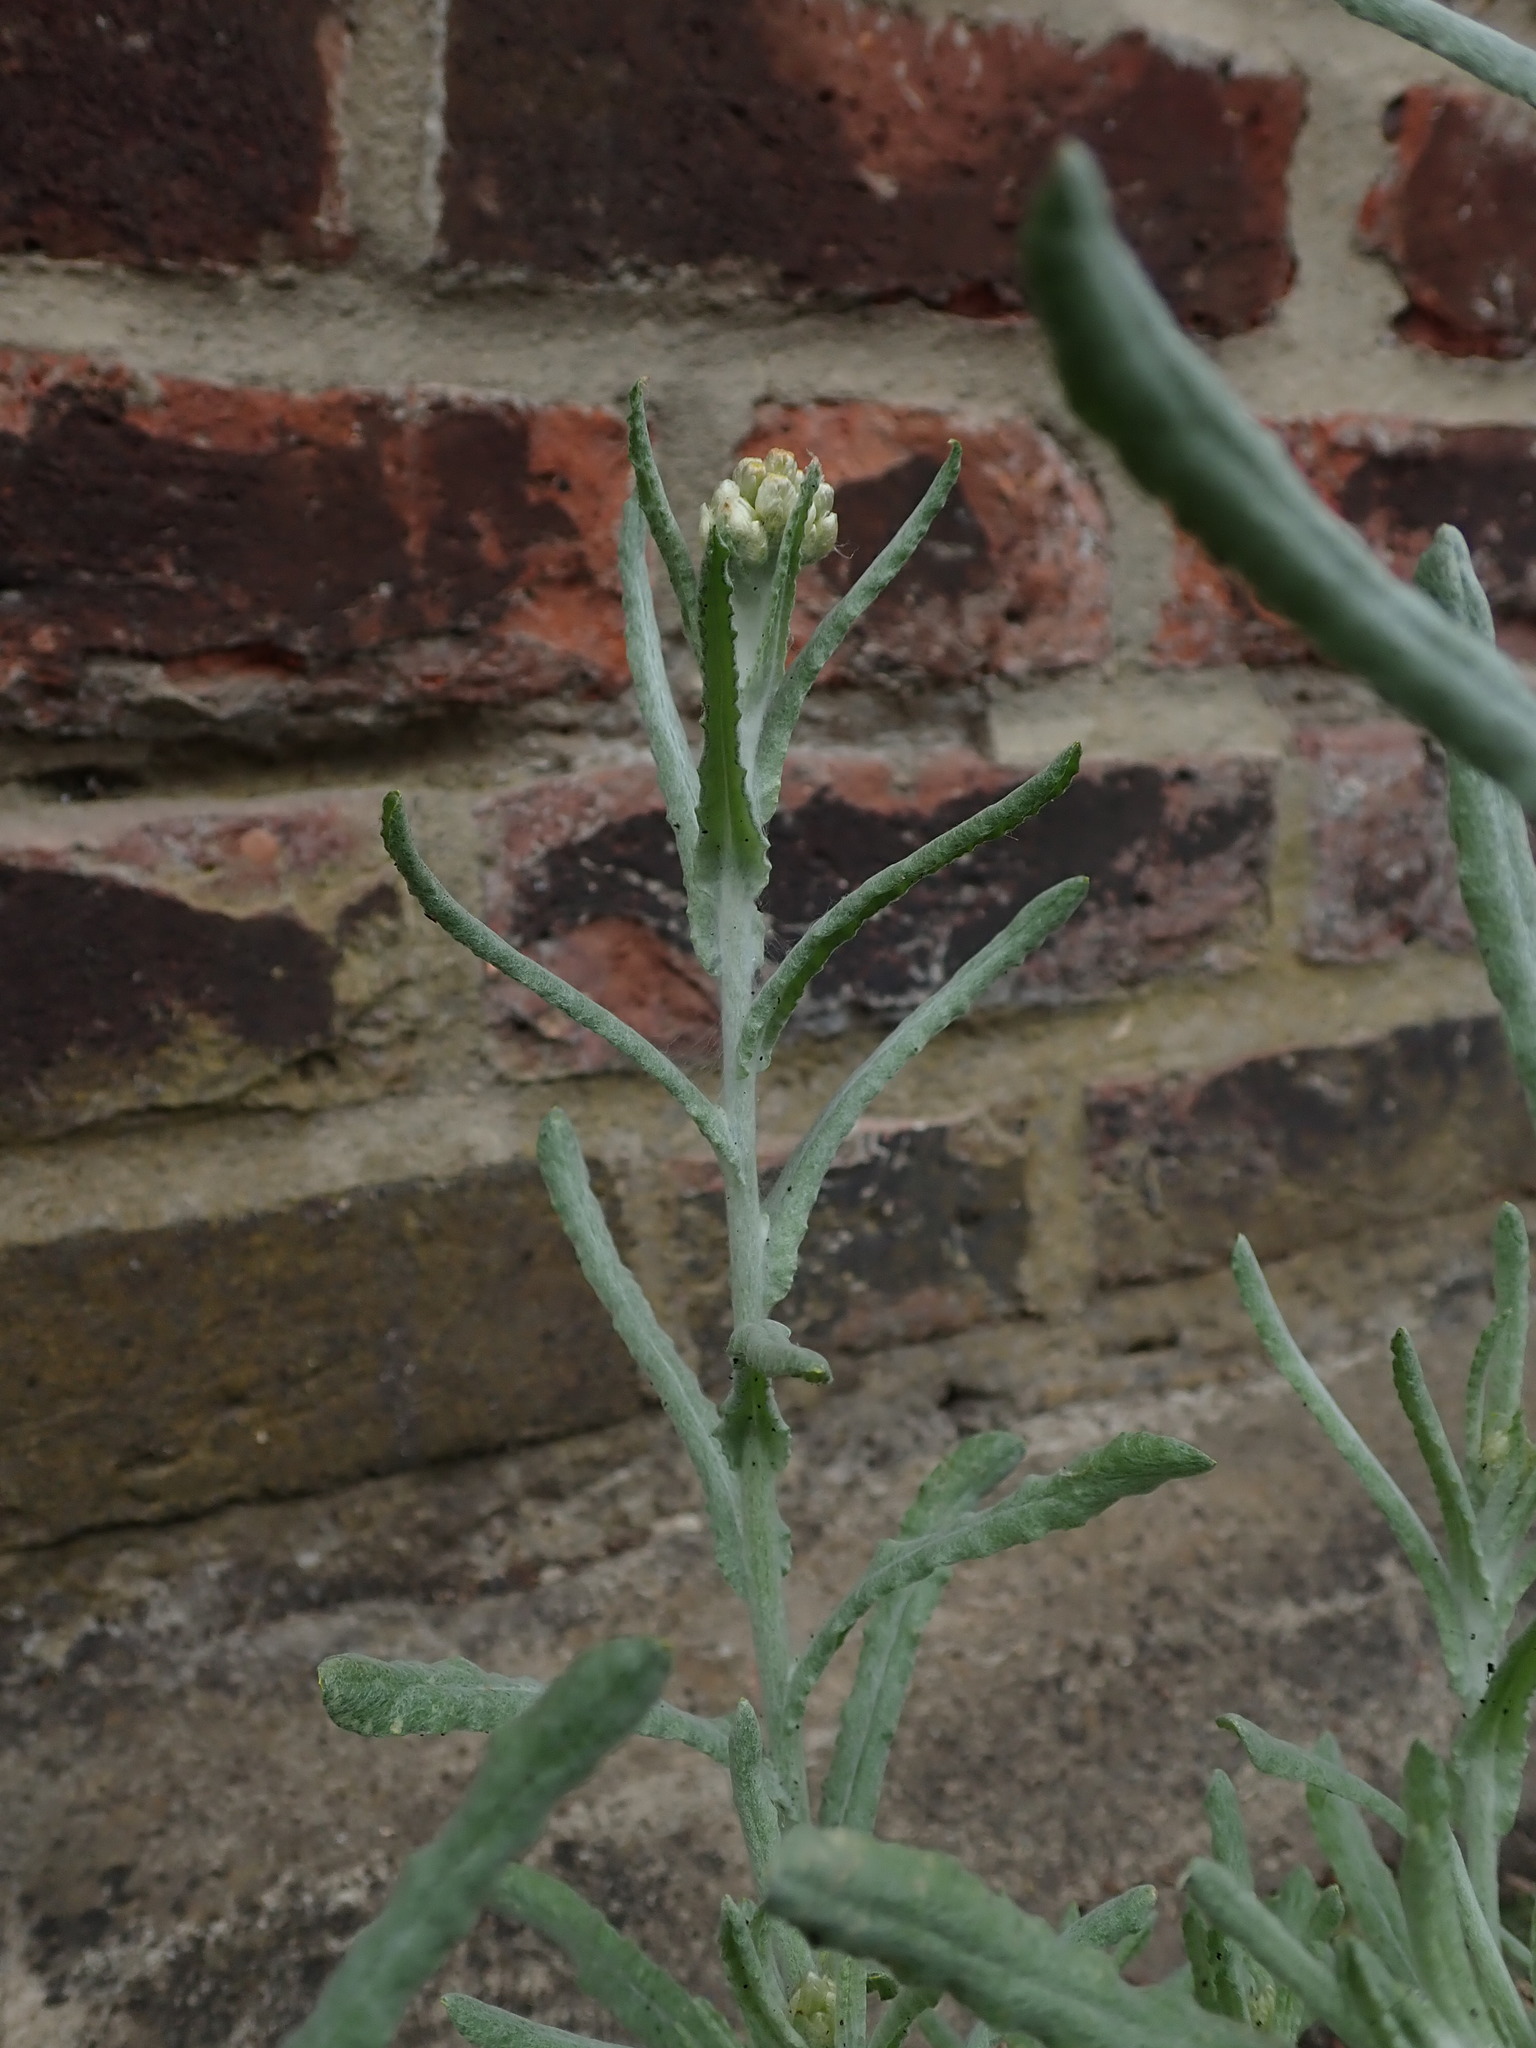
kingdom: Plantae
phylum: Tracheophyta
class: Magnoliopsida
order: Asterales
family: Asteraceae
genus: Helichrysum
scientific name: Helichrysum luteoalbum
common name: Daisy
